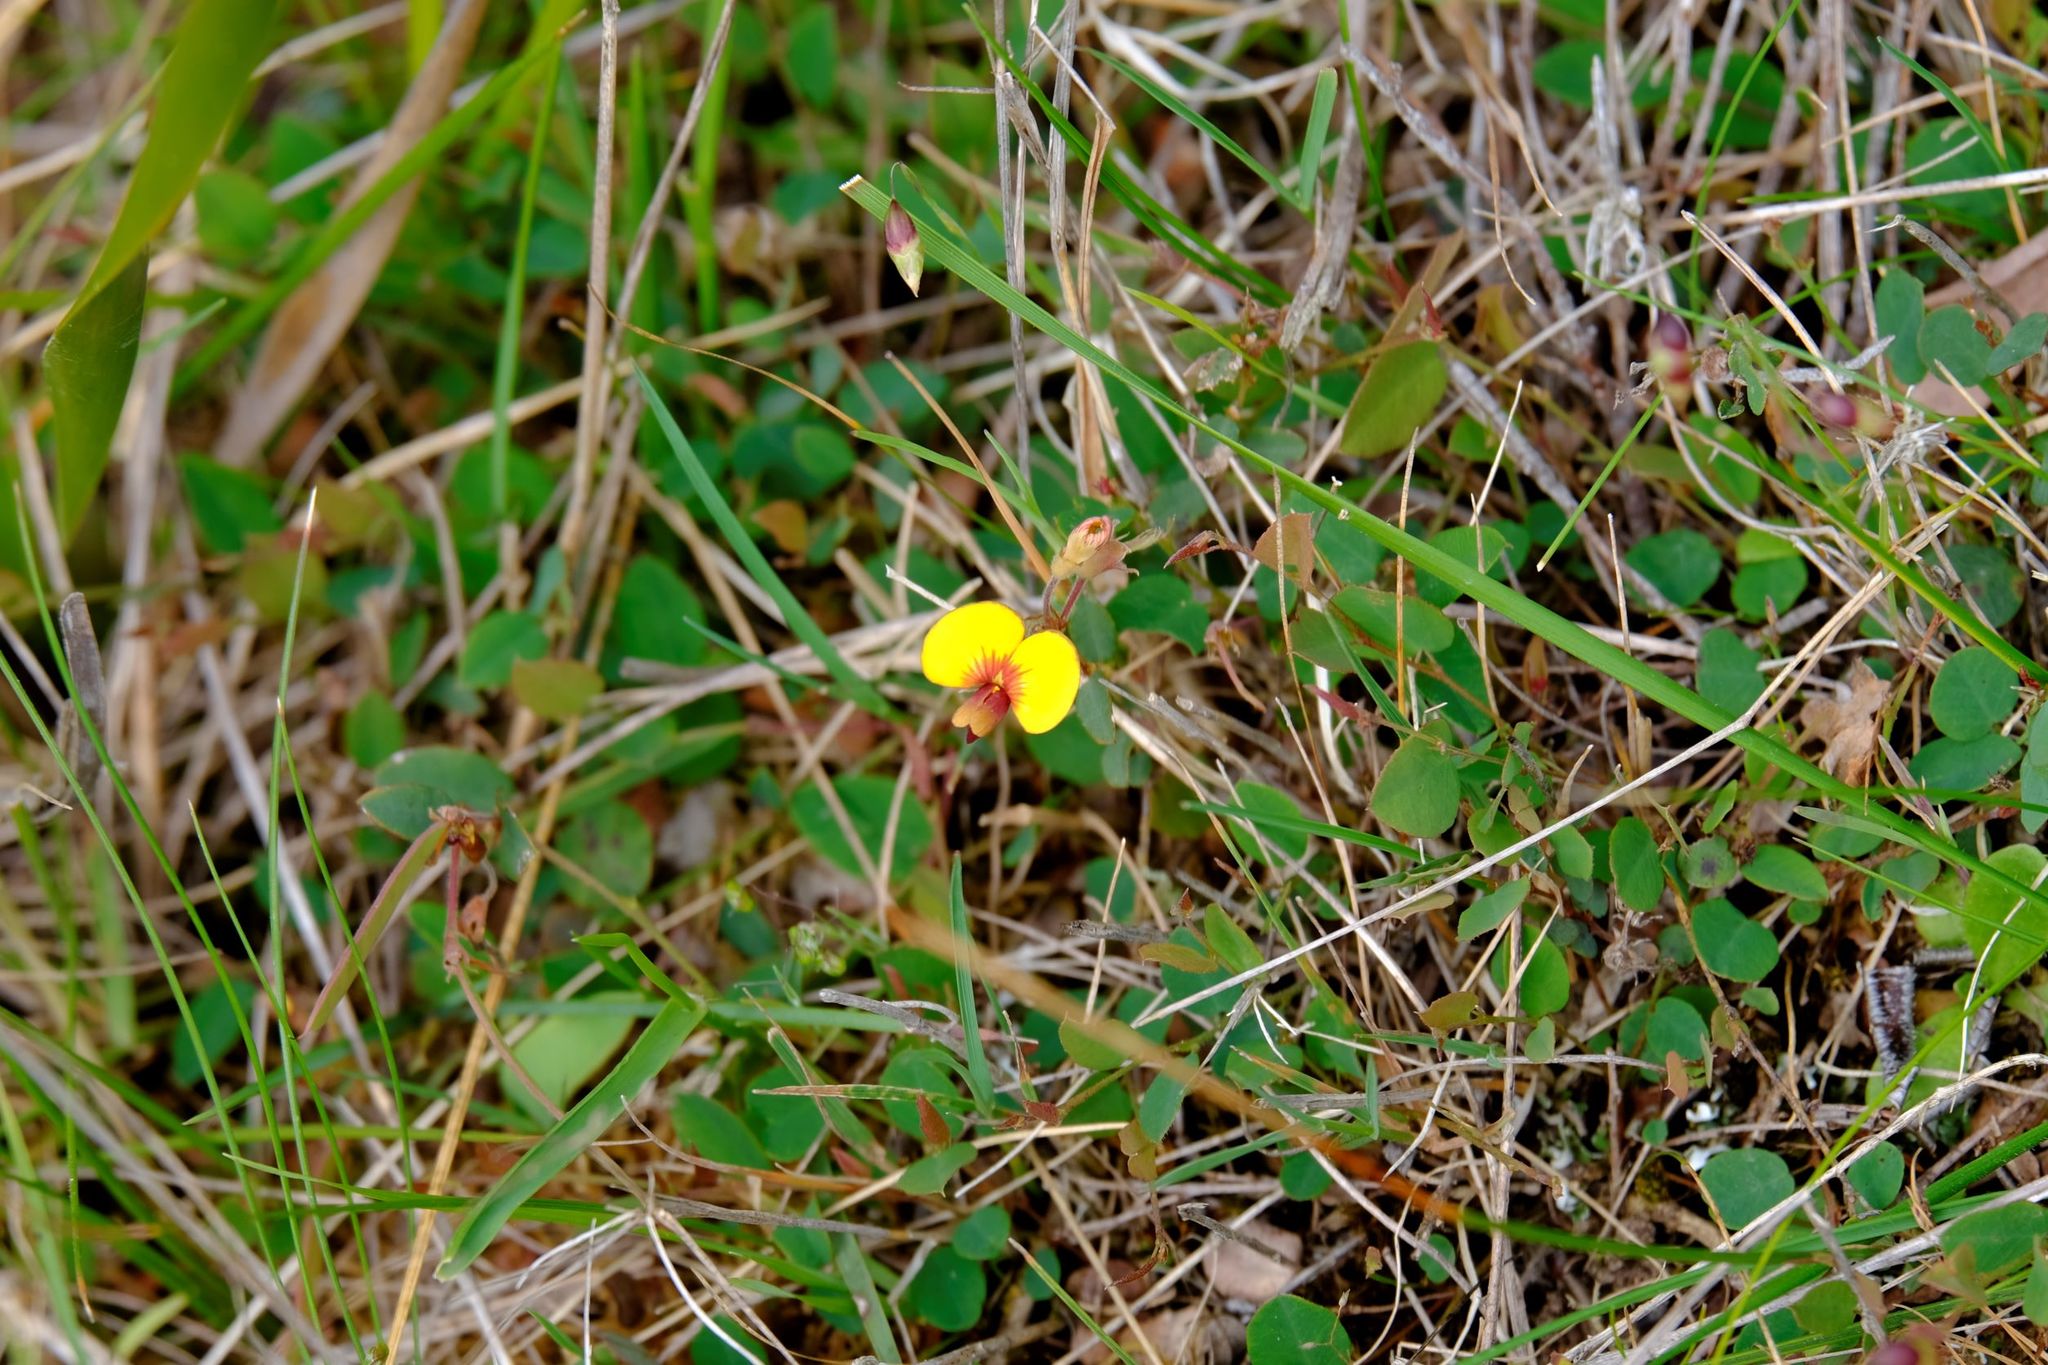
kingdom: Plantae
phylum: Tracheophyta
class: Magnoliopsida
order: Fabales
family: Fabaceae
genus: Bossiaea
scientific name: Bossiaea prostrata
